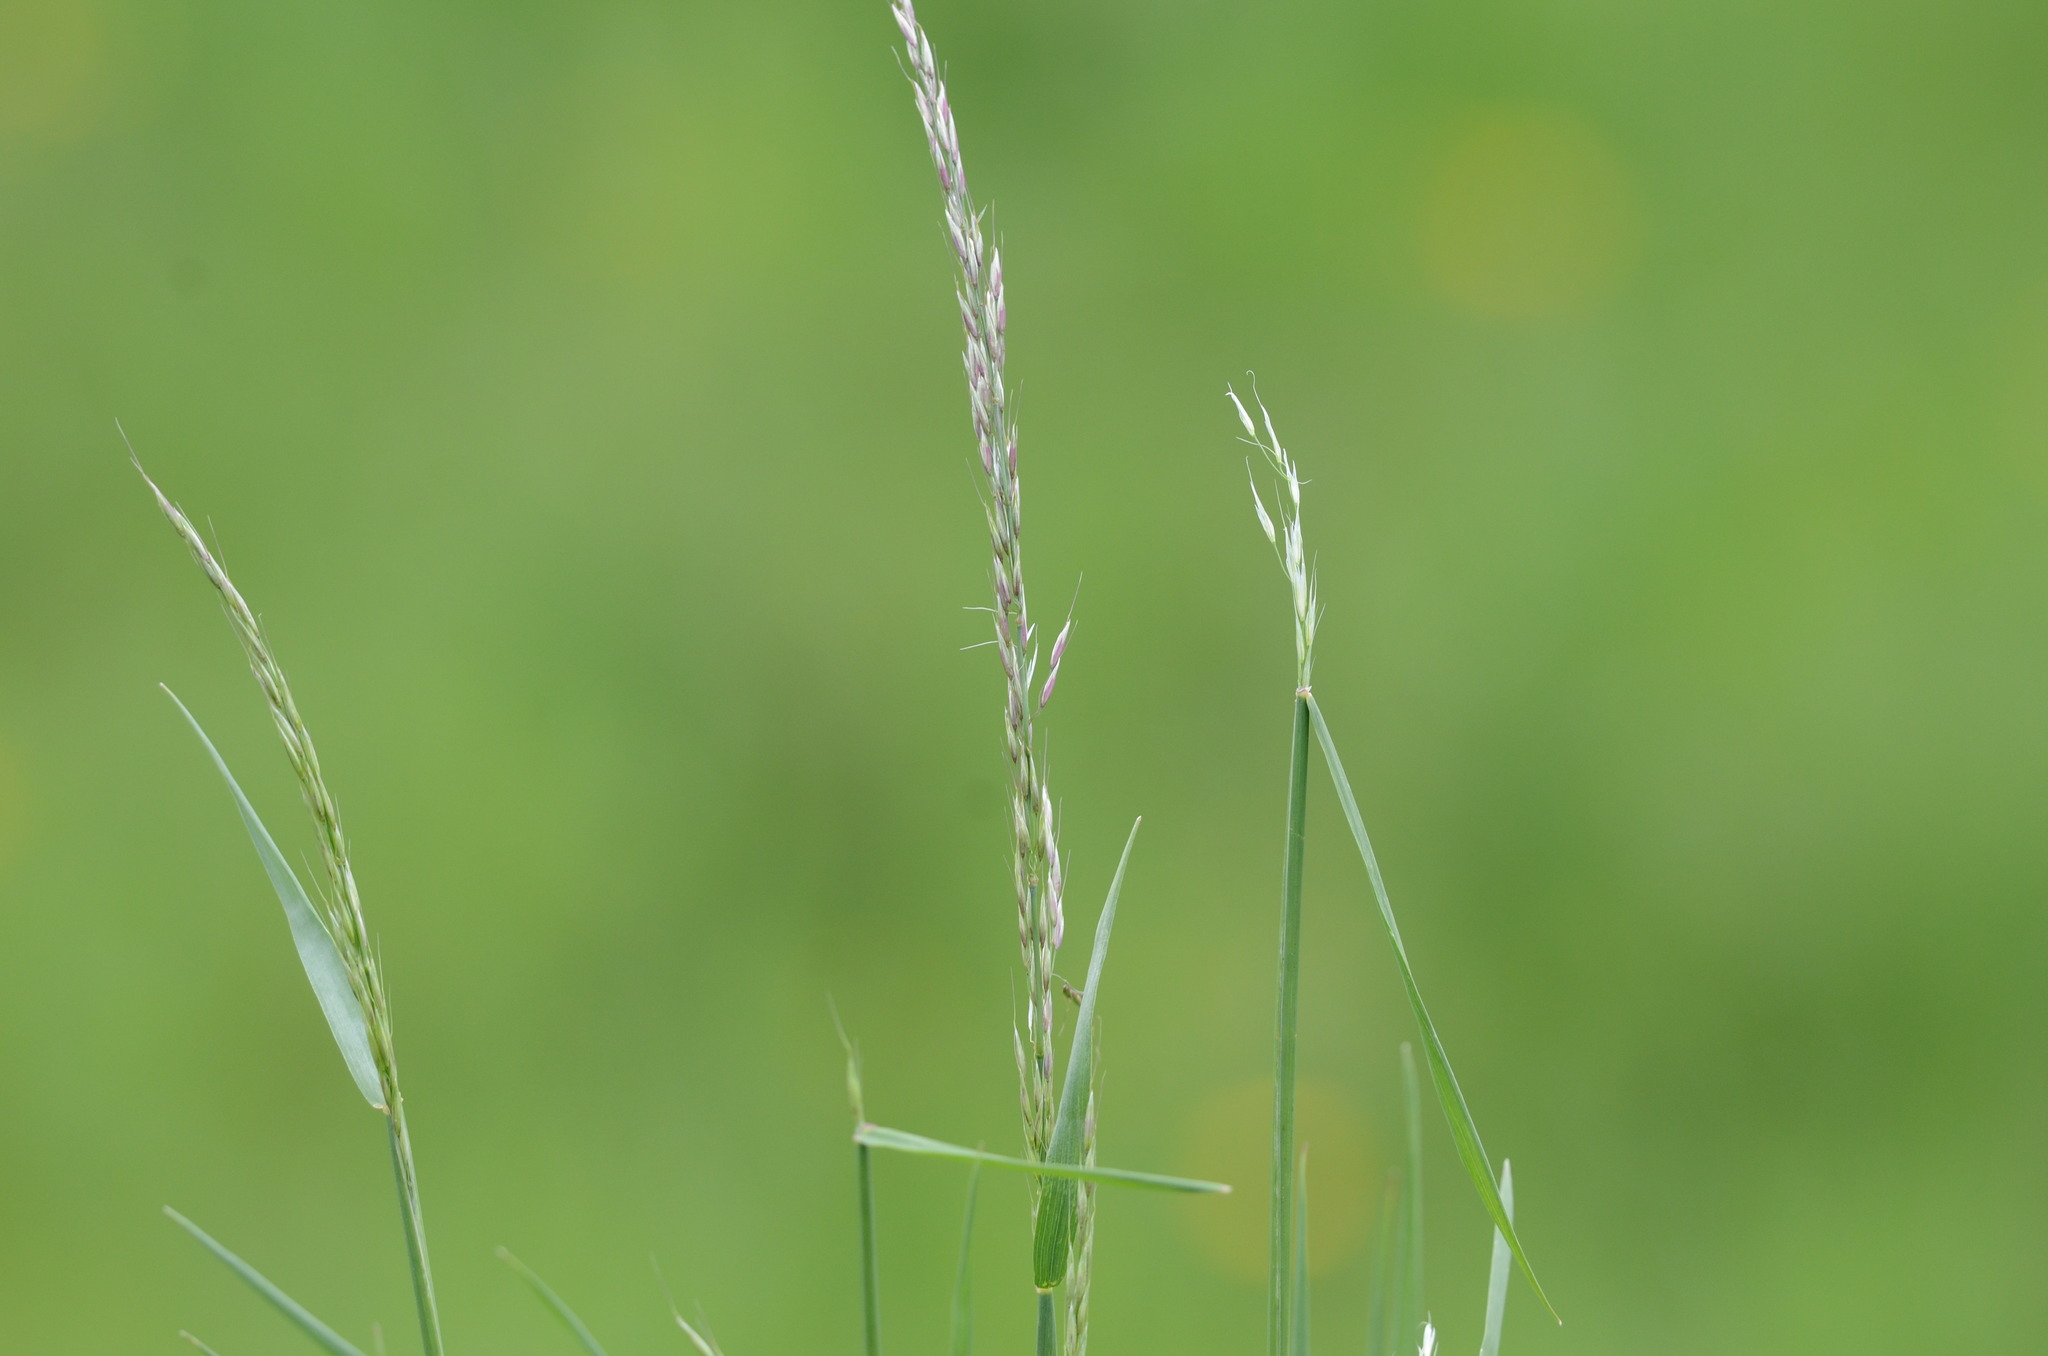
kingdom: Plantae
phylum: Tracheophyta
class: Liliopsida
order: Poales
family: Poaceae
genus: Arrhenatherum
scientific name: Arrhenatherum elatius
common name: Tall oatgrass
